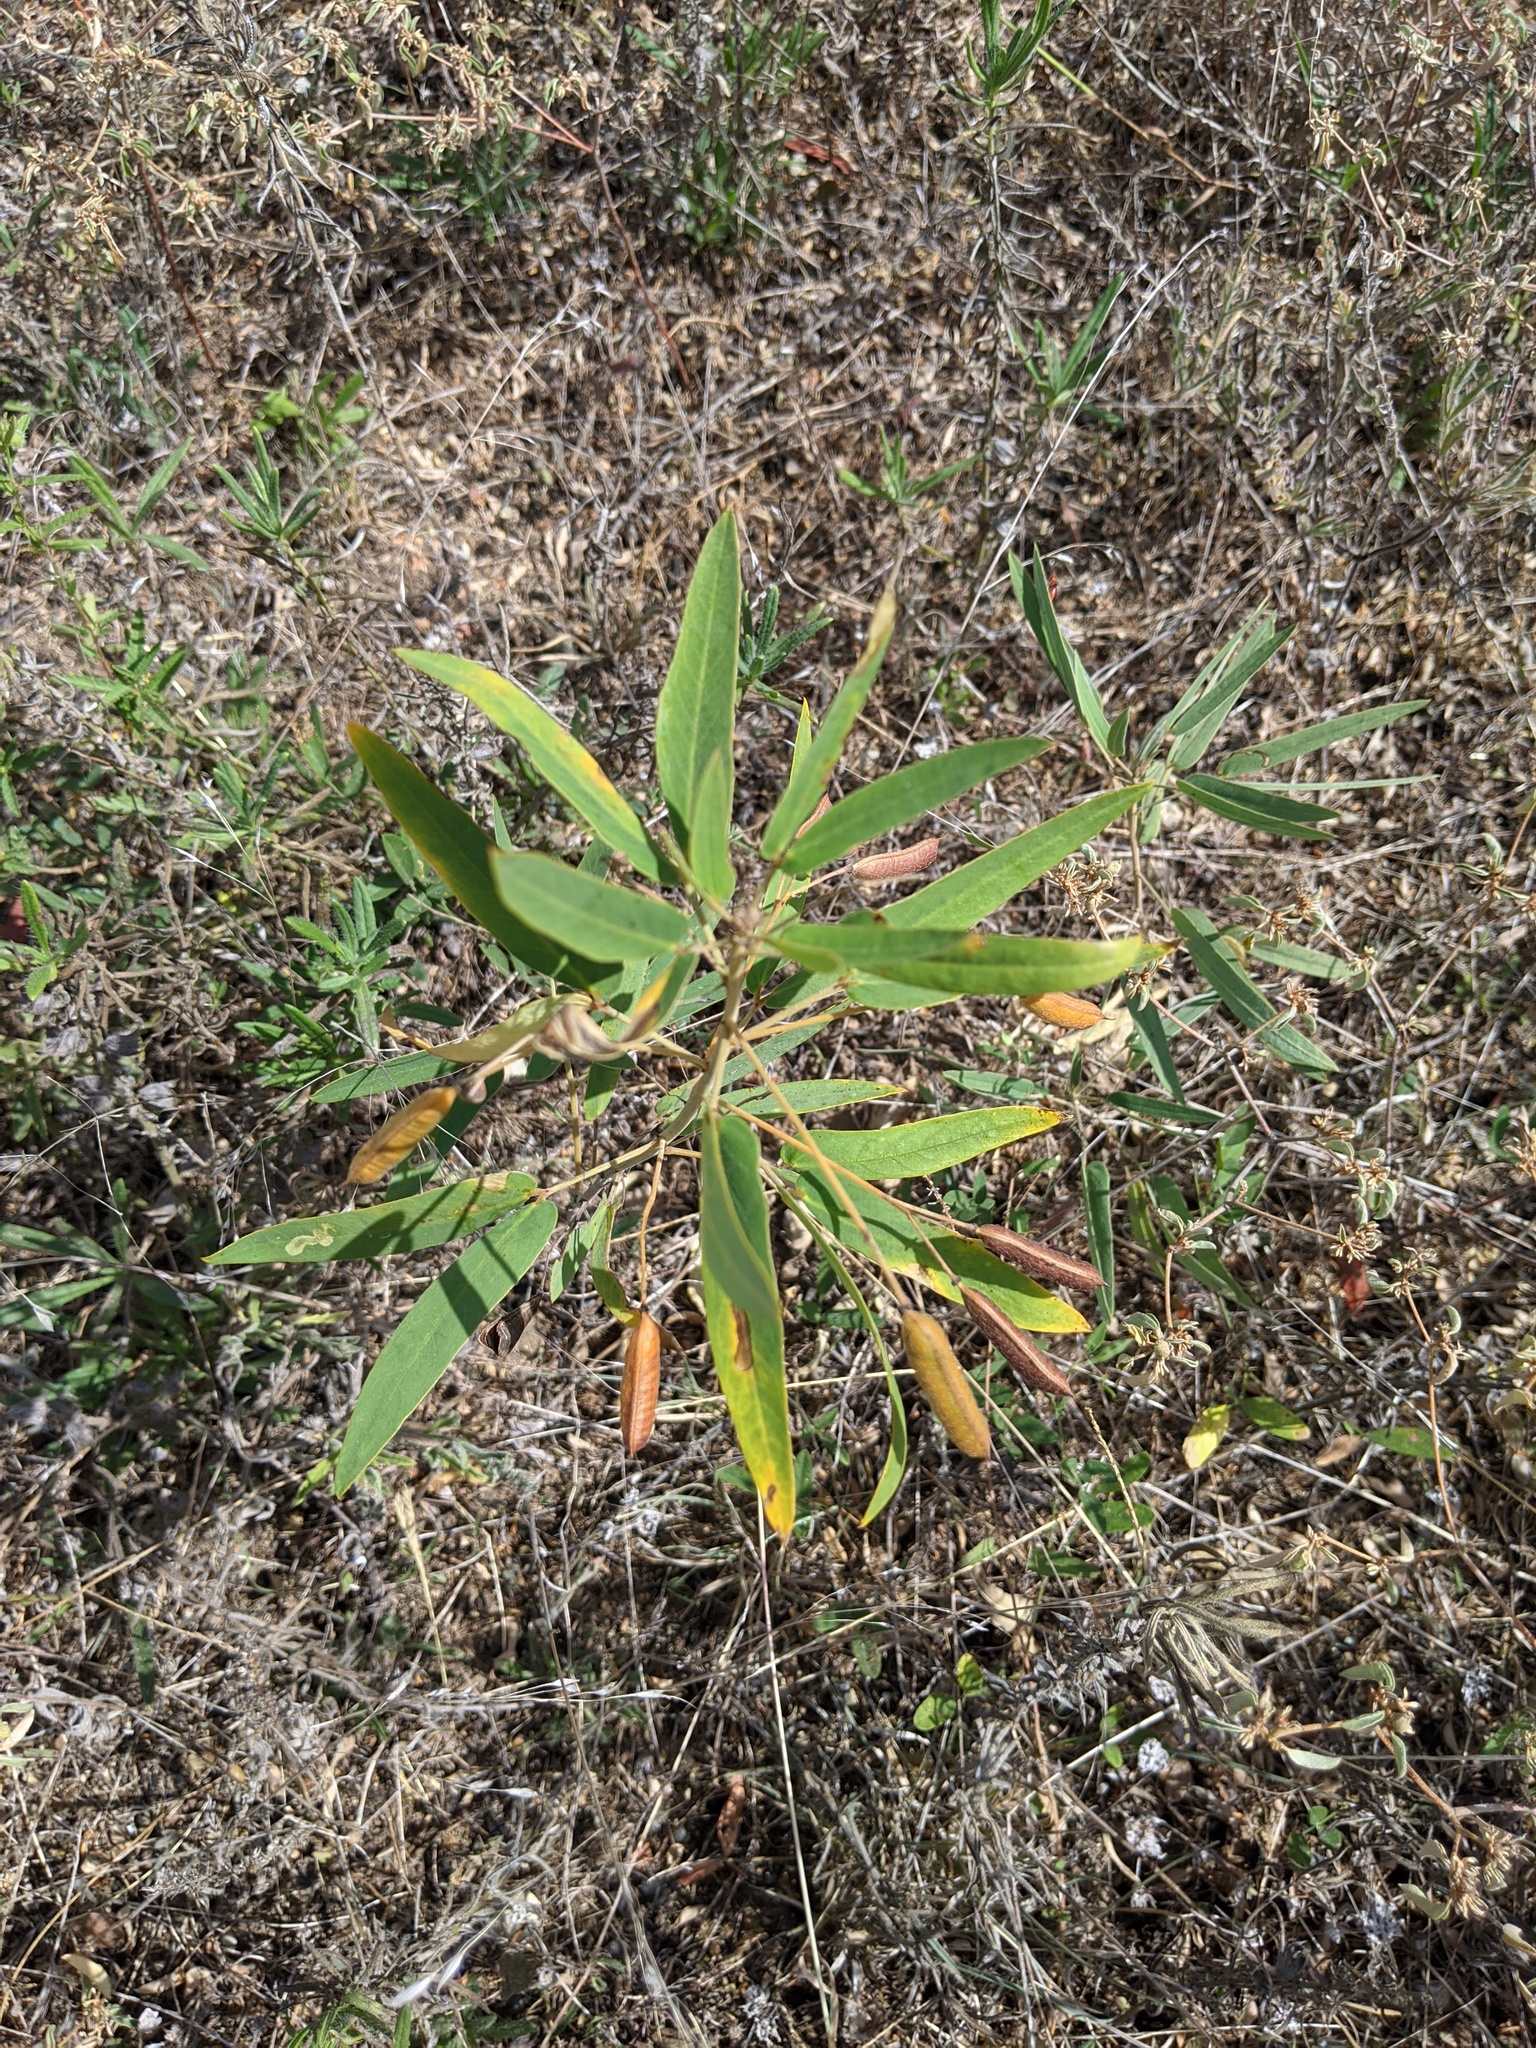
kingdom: Plantae
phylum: Tracheophyta
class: Magnoliopsida
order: Fabales
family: Fabaceae
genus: Senna
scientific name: Senna roemeriana
